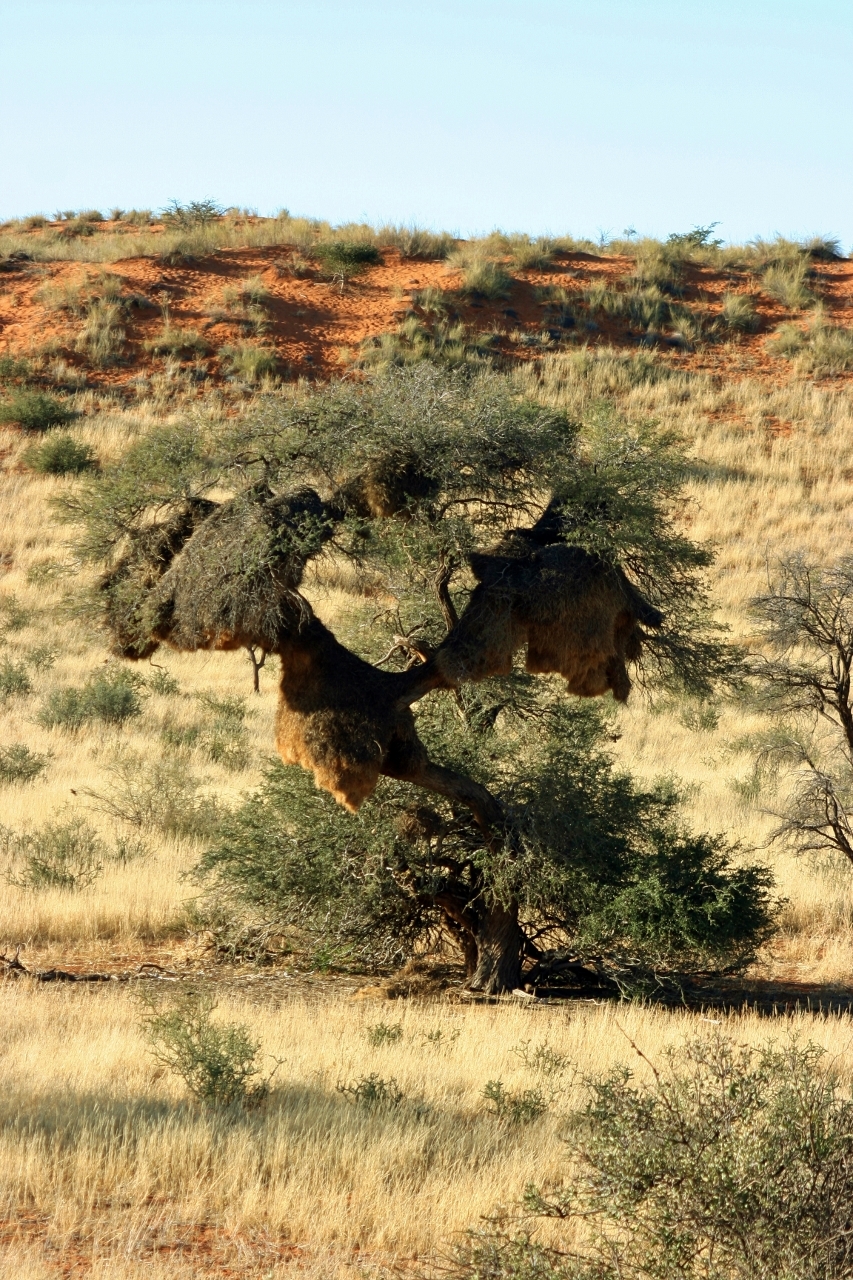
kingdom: Animalia
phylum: Chordata
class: Aves
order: Passeriformes
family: Passeridae
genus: Philetairus
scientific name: Philetairus socius
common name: Sociable weaver
